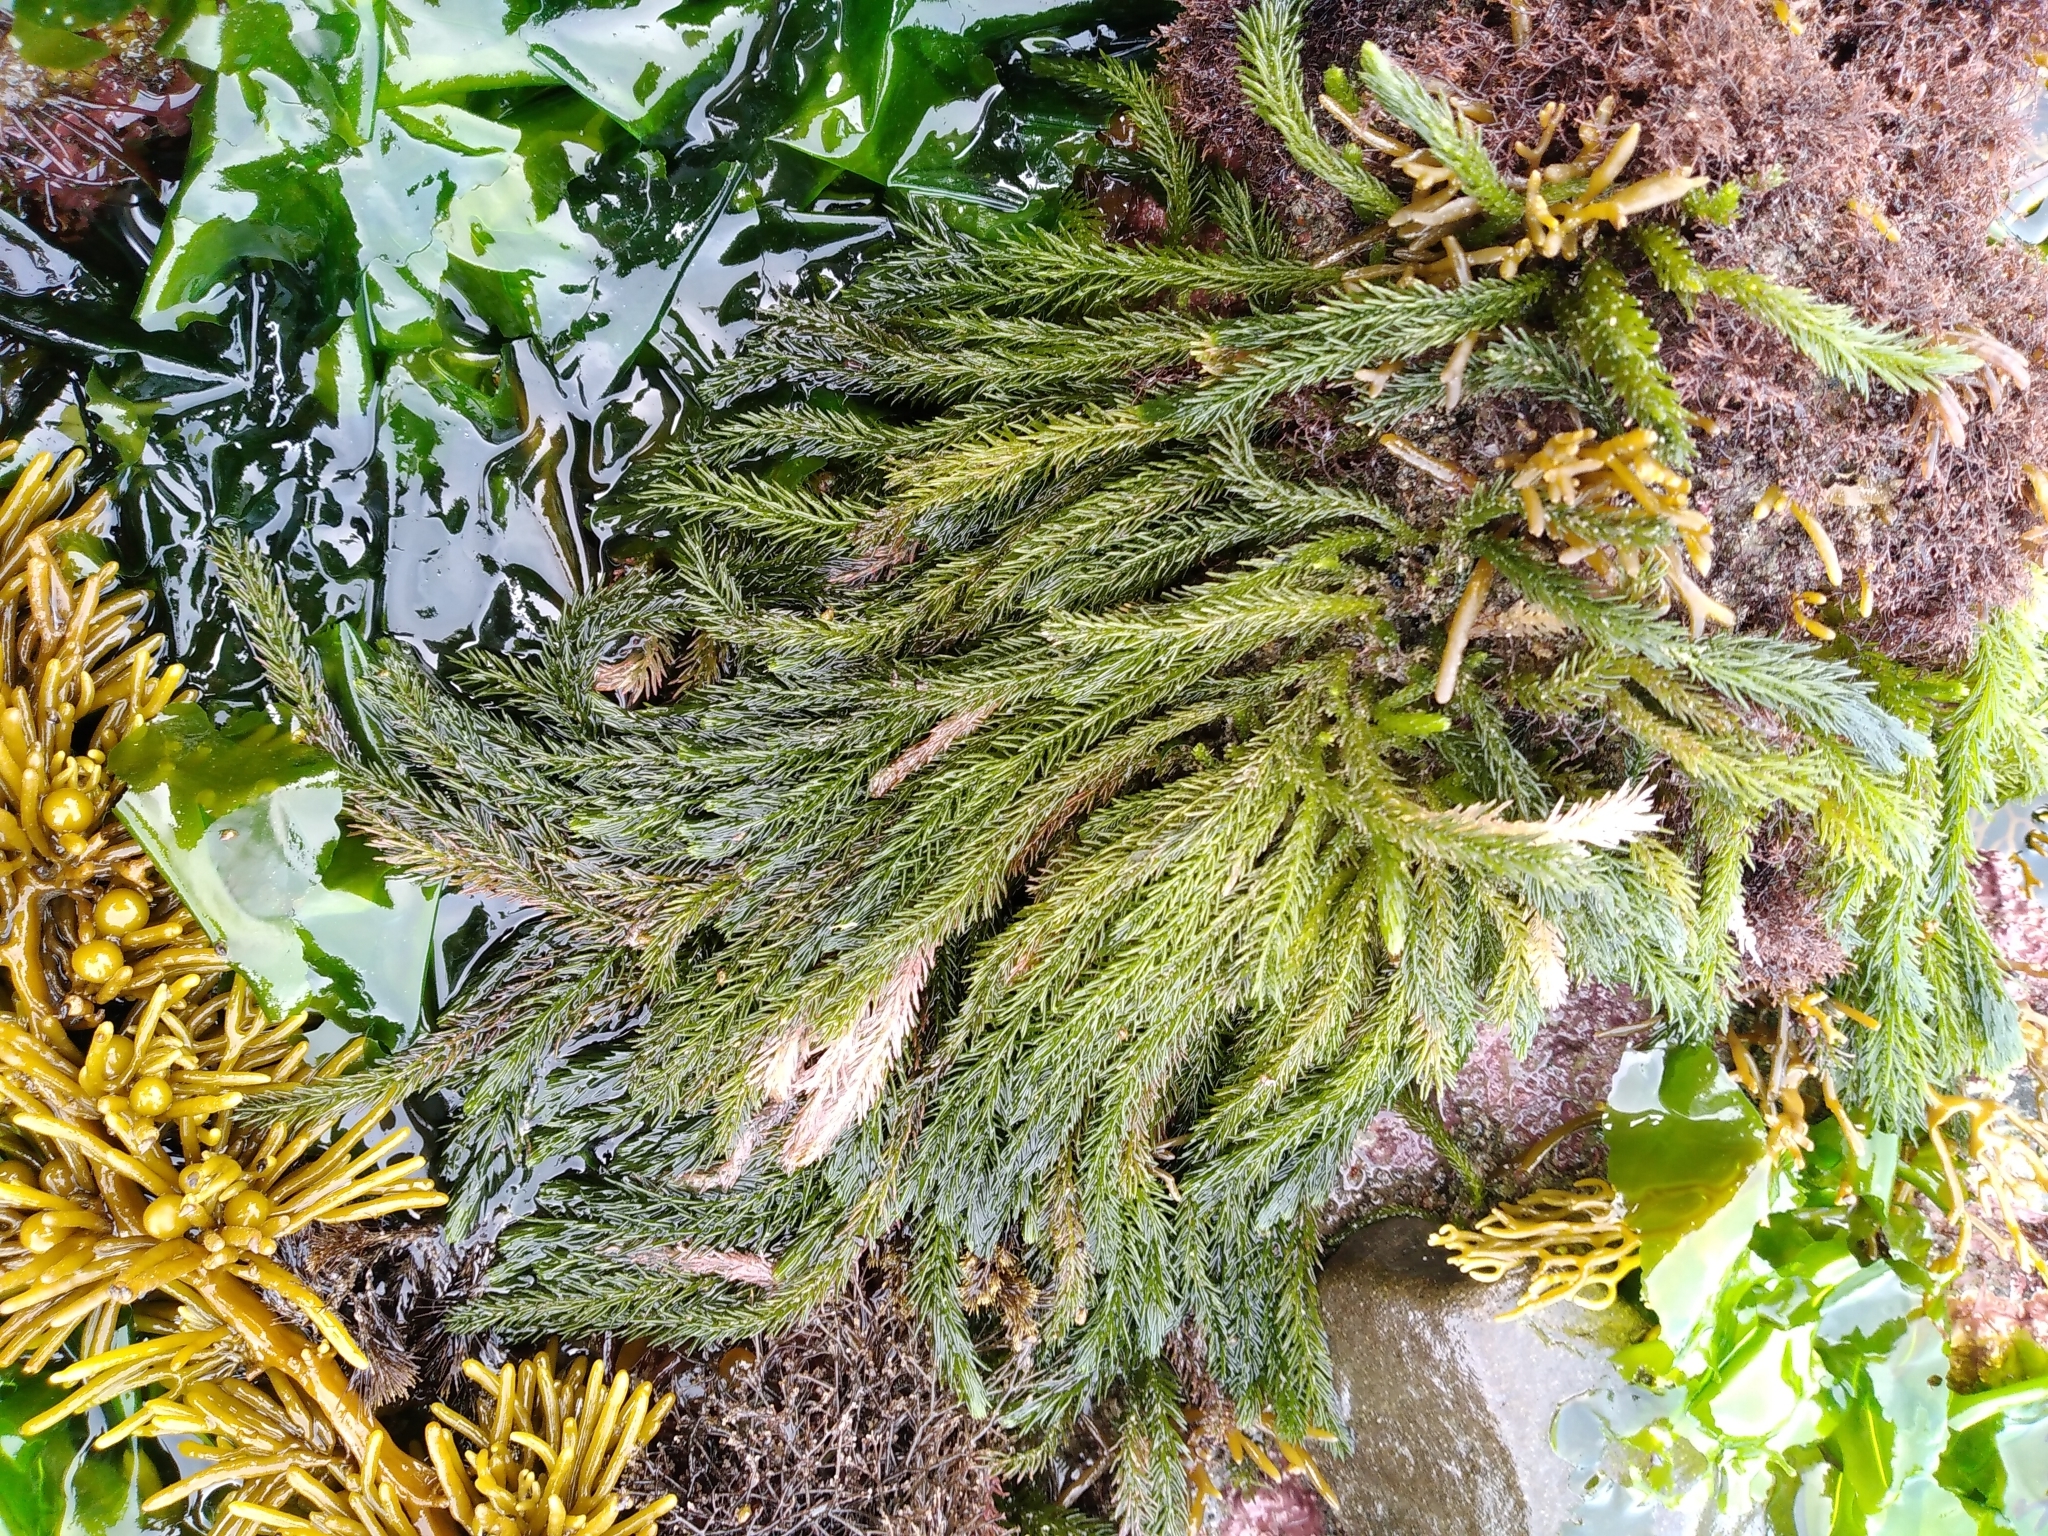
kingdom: Plantae
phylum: Chlorophyta
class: Ulvophyceae
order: Bryopsidales
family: Caulerpaceae
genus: Caulerpa
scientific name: Caulerpa brownii
